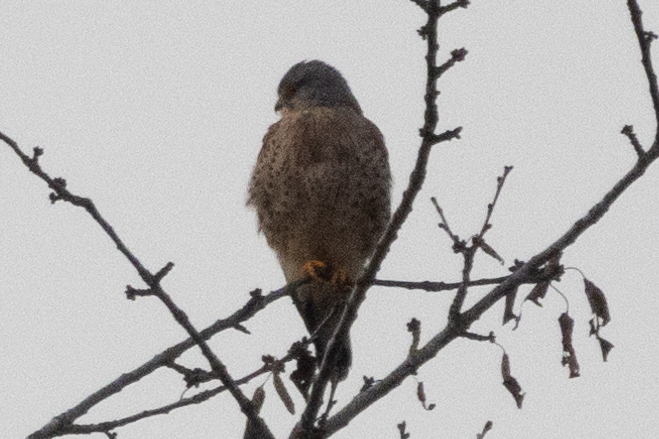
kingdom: Animalia
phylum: Chordata
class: Aves
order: Falconiformes
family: Falconidae
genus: Falco
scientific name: Falco tinnunculus
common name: Common kestrel
